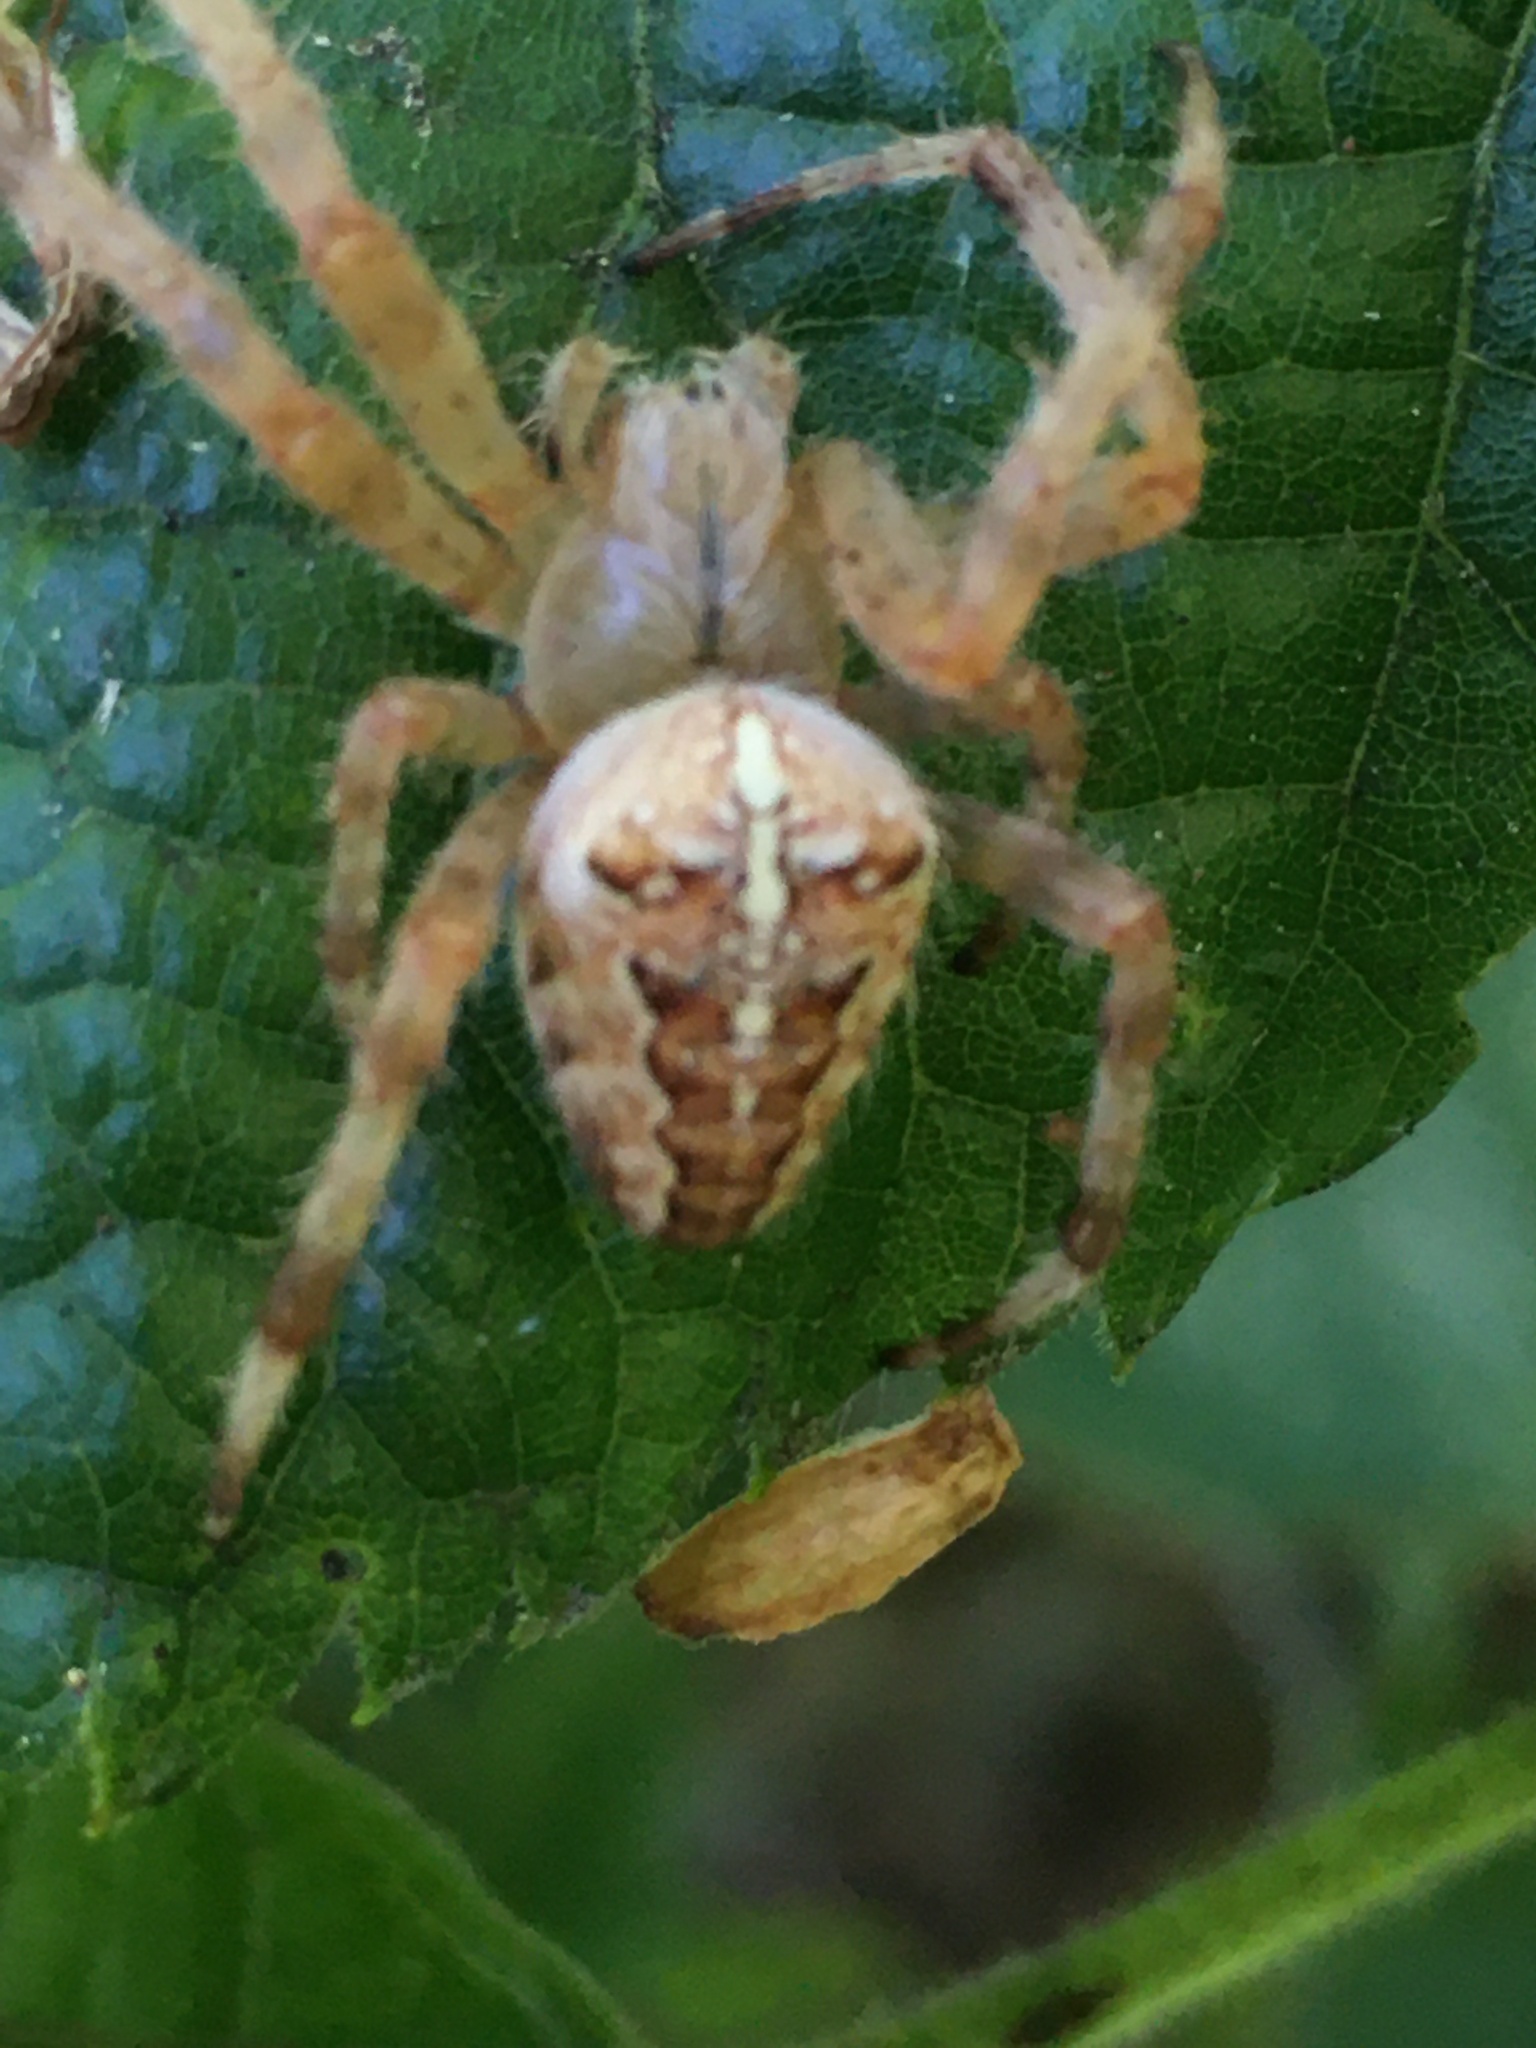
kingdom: Animalia
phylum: Arthropoda
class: Arachnida
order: Araneae
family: Araneidae
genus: Araneus
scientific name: Araneus diadematus
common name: Cross orbweaver
